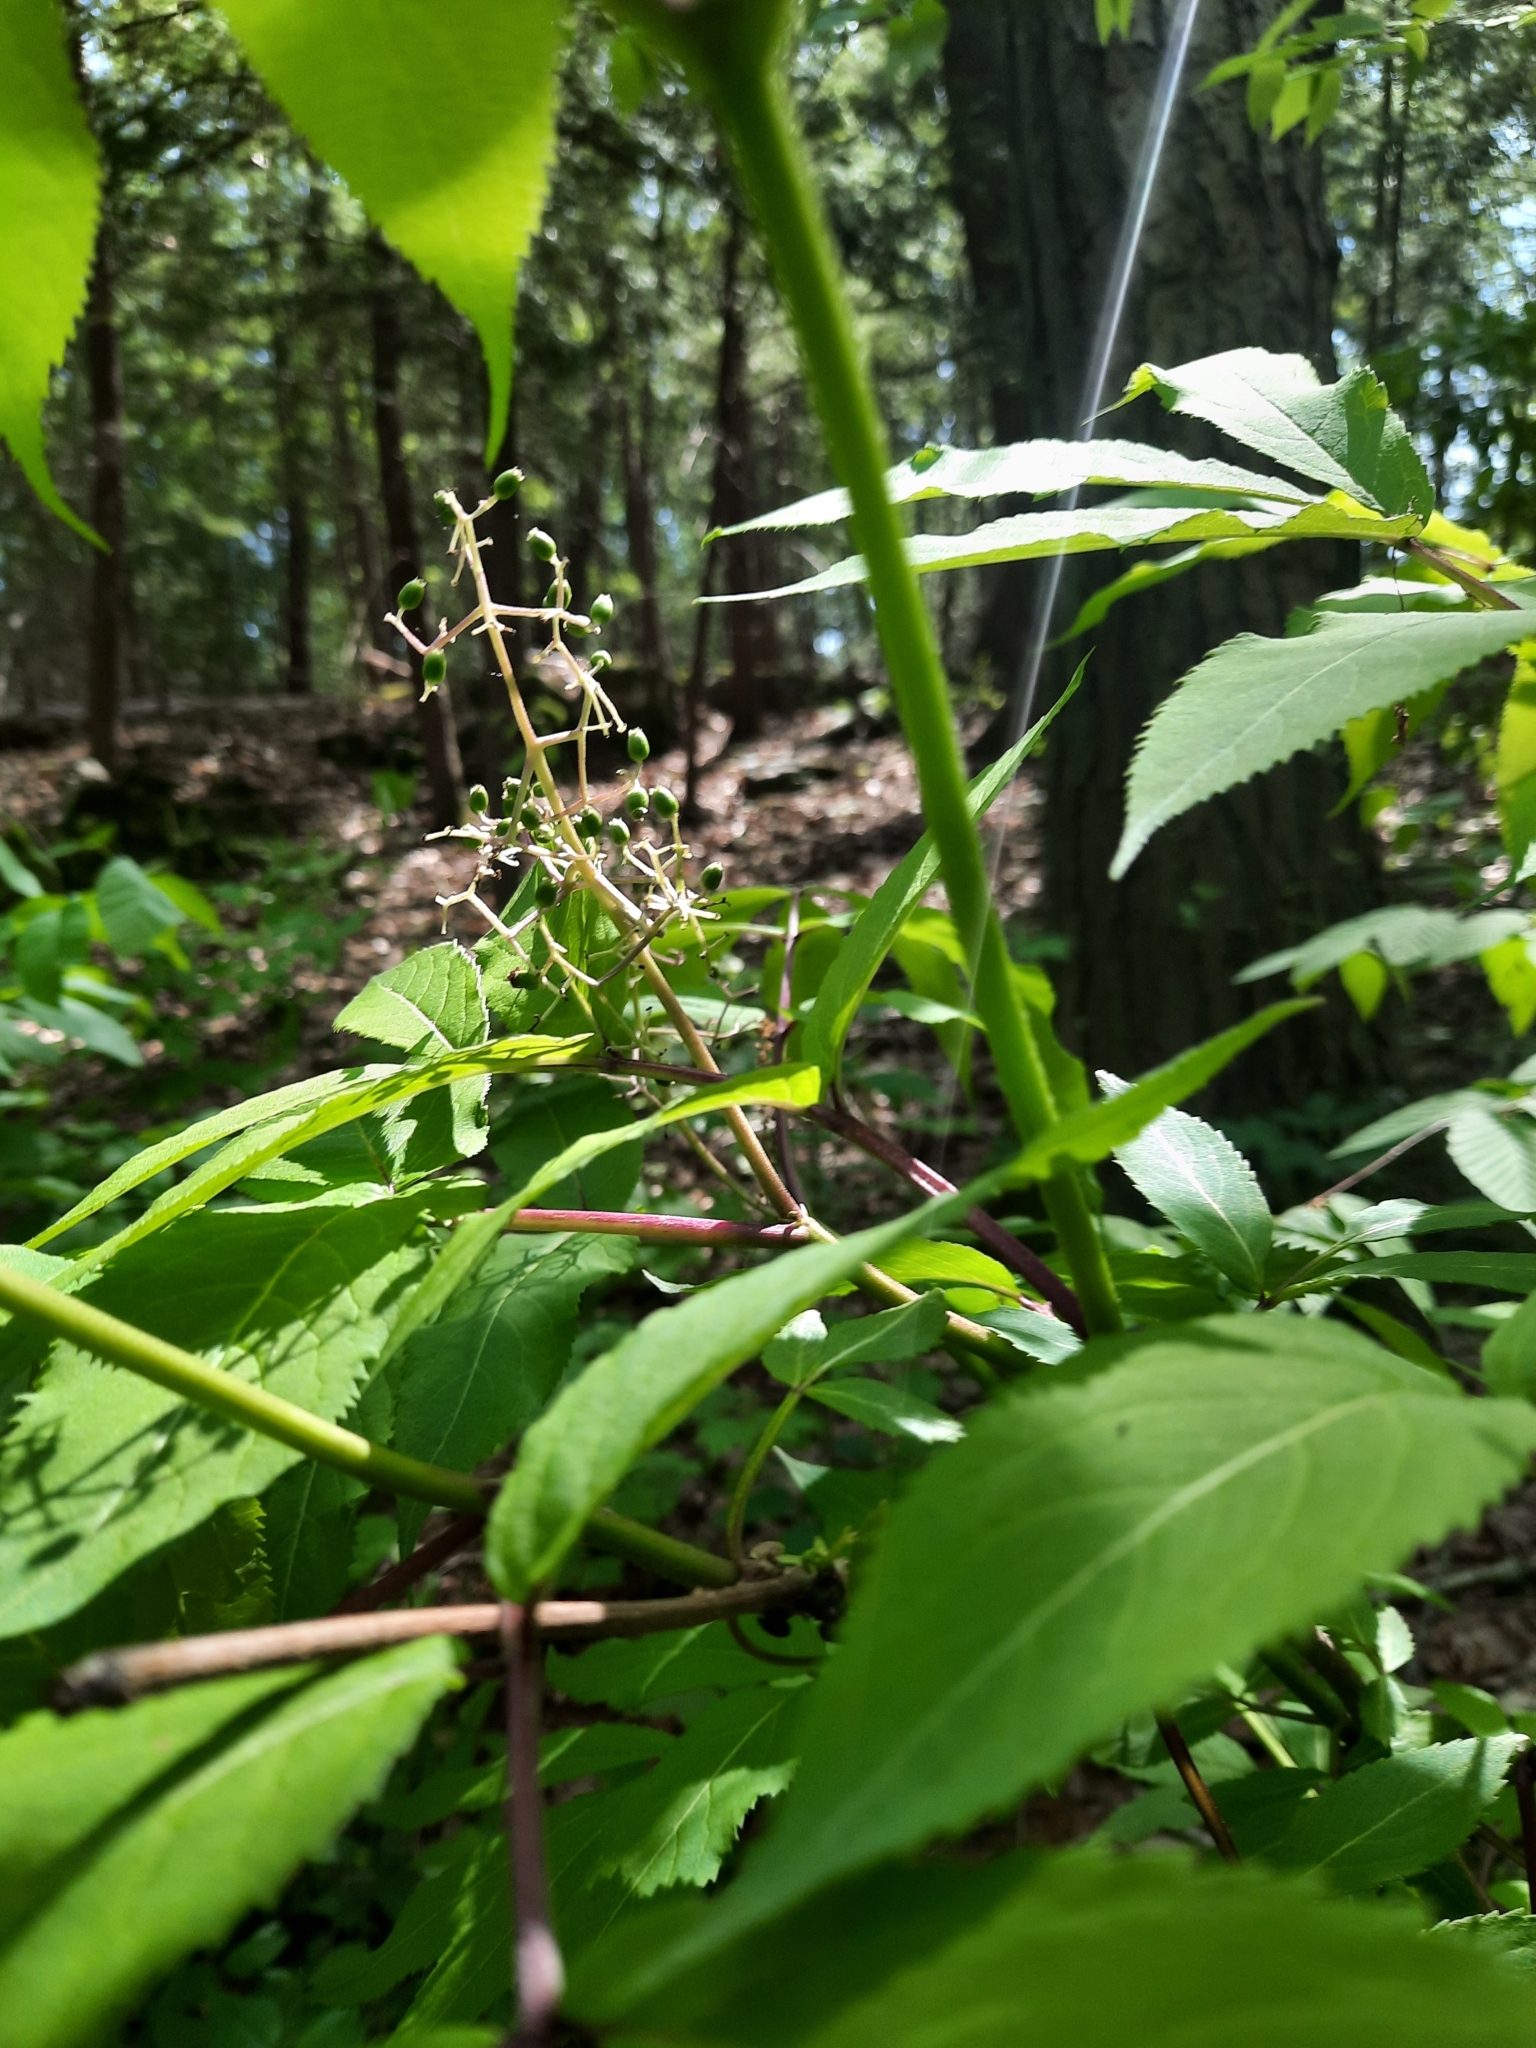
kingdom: Plantae
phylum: Tracheophyta
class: Magnoliopsida
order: Dipsacales
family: Viburnaceae
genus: Sambucus
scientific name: Sambucus racemosa
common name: Red-berried elder
